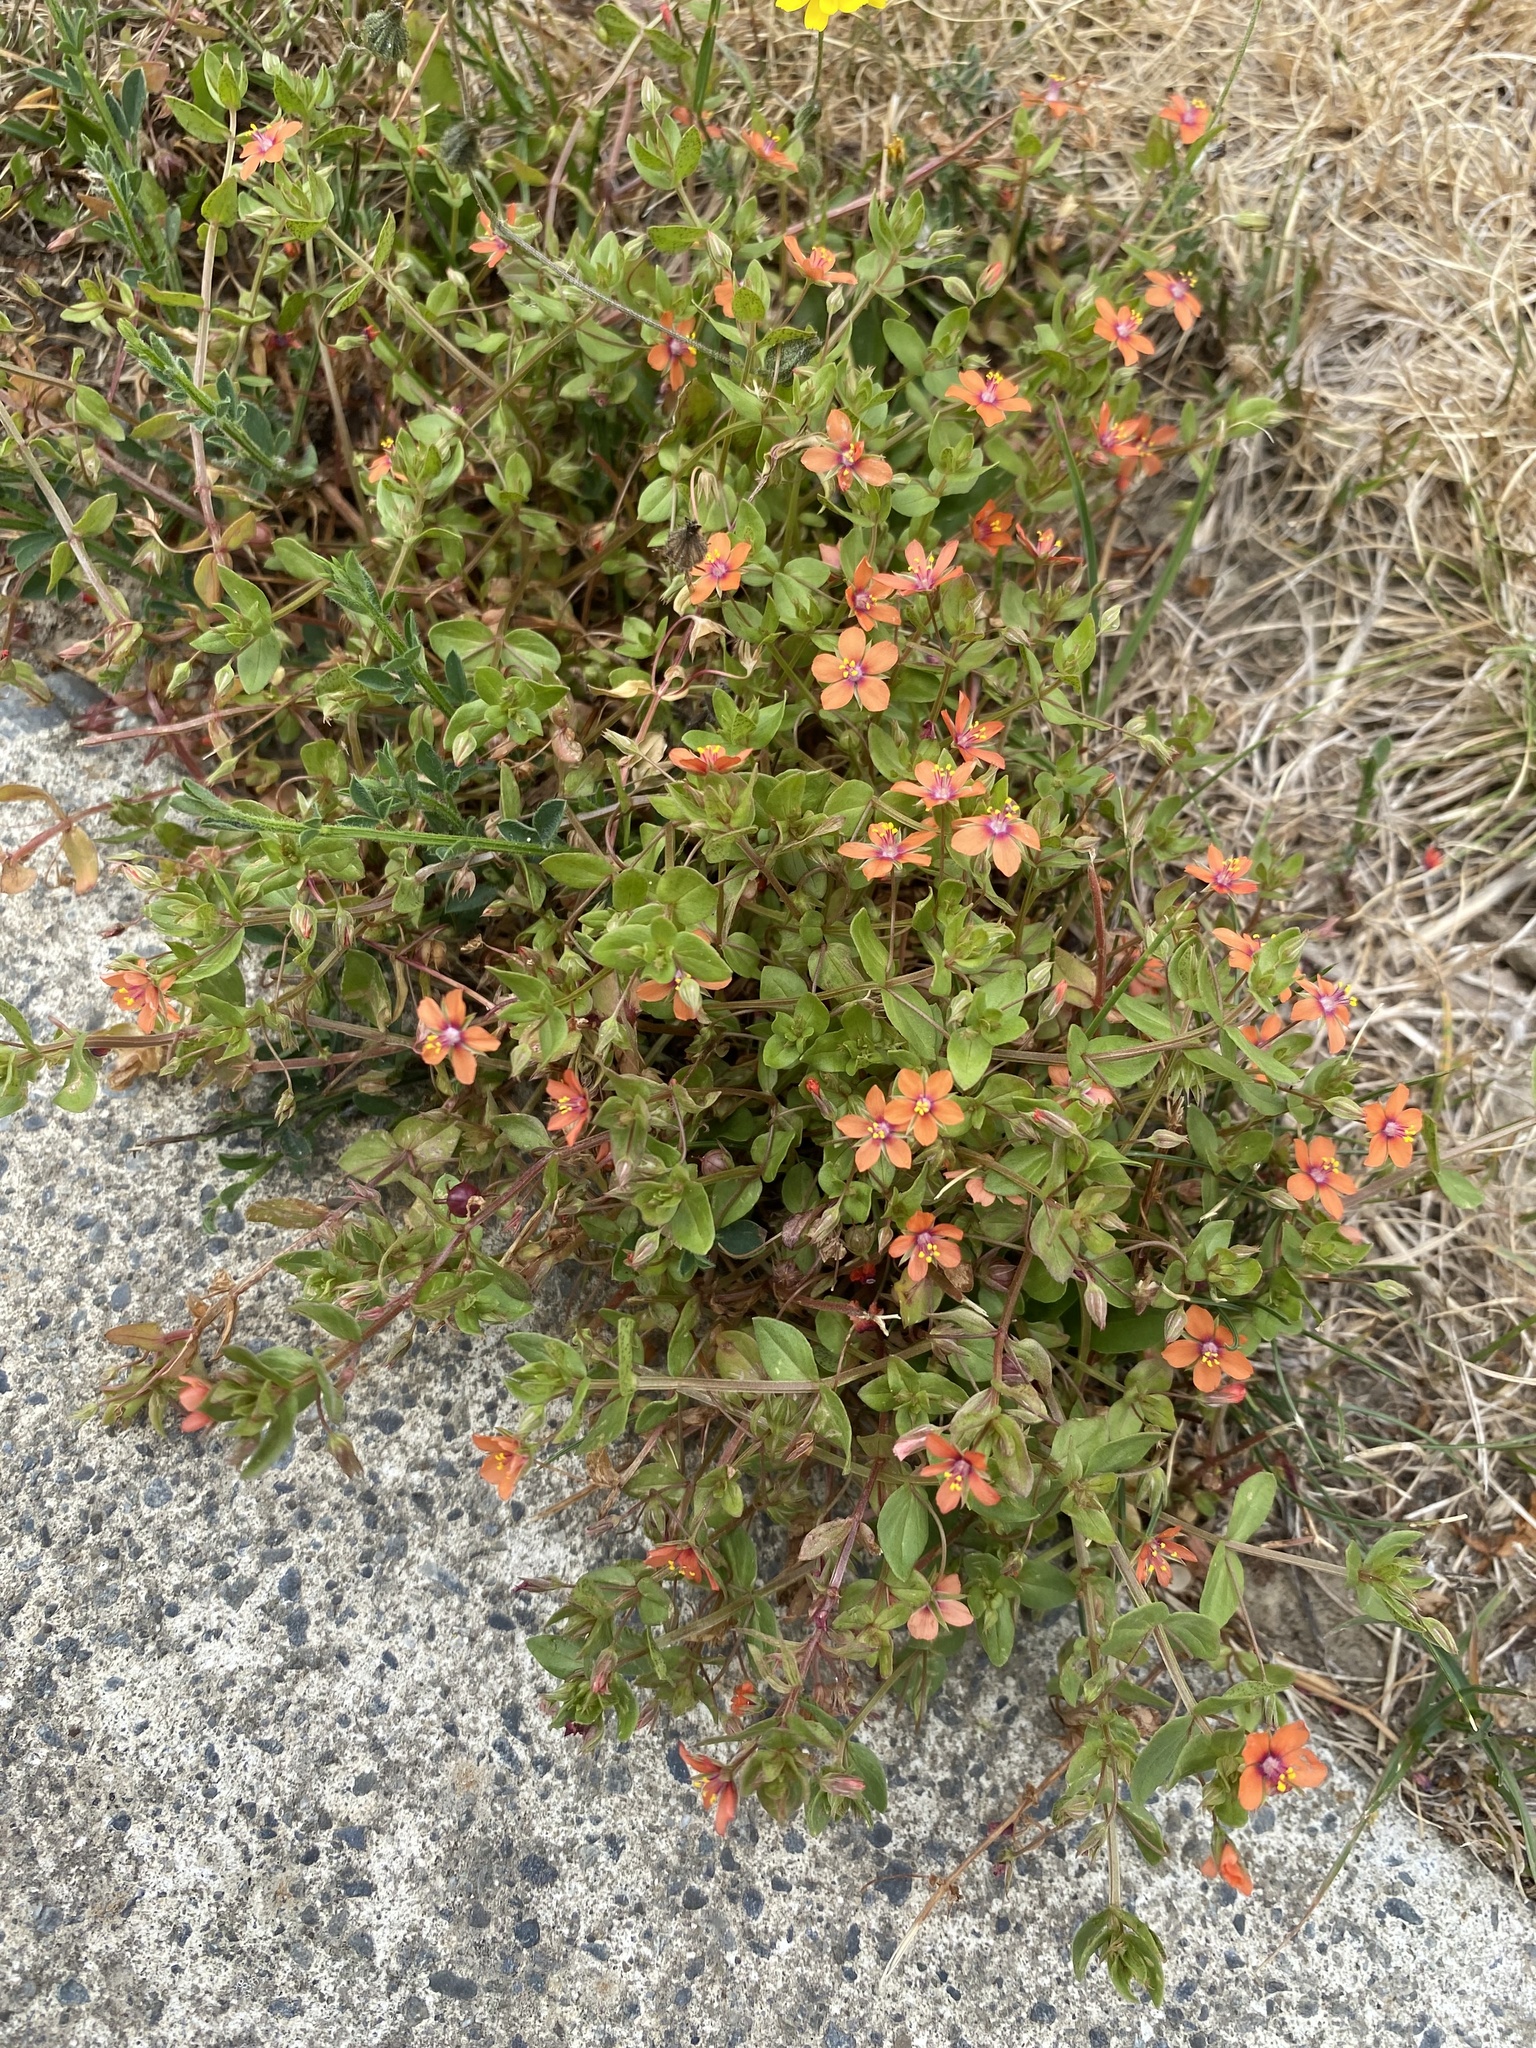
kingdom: Plantae
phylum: Tracheophyta
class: Magnoliopsida
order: Ericales
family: Primulaceae
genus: Lysimachia
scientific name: Lysimachia arvensis
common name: Scarlet pimpernel
